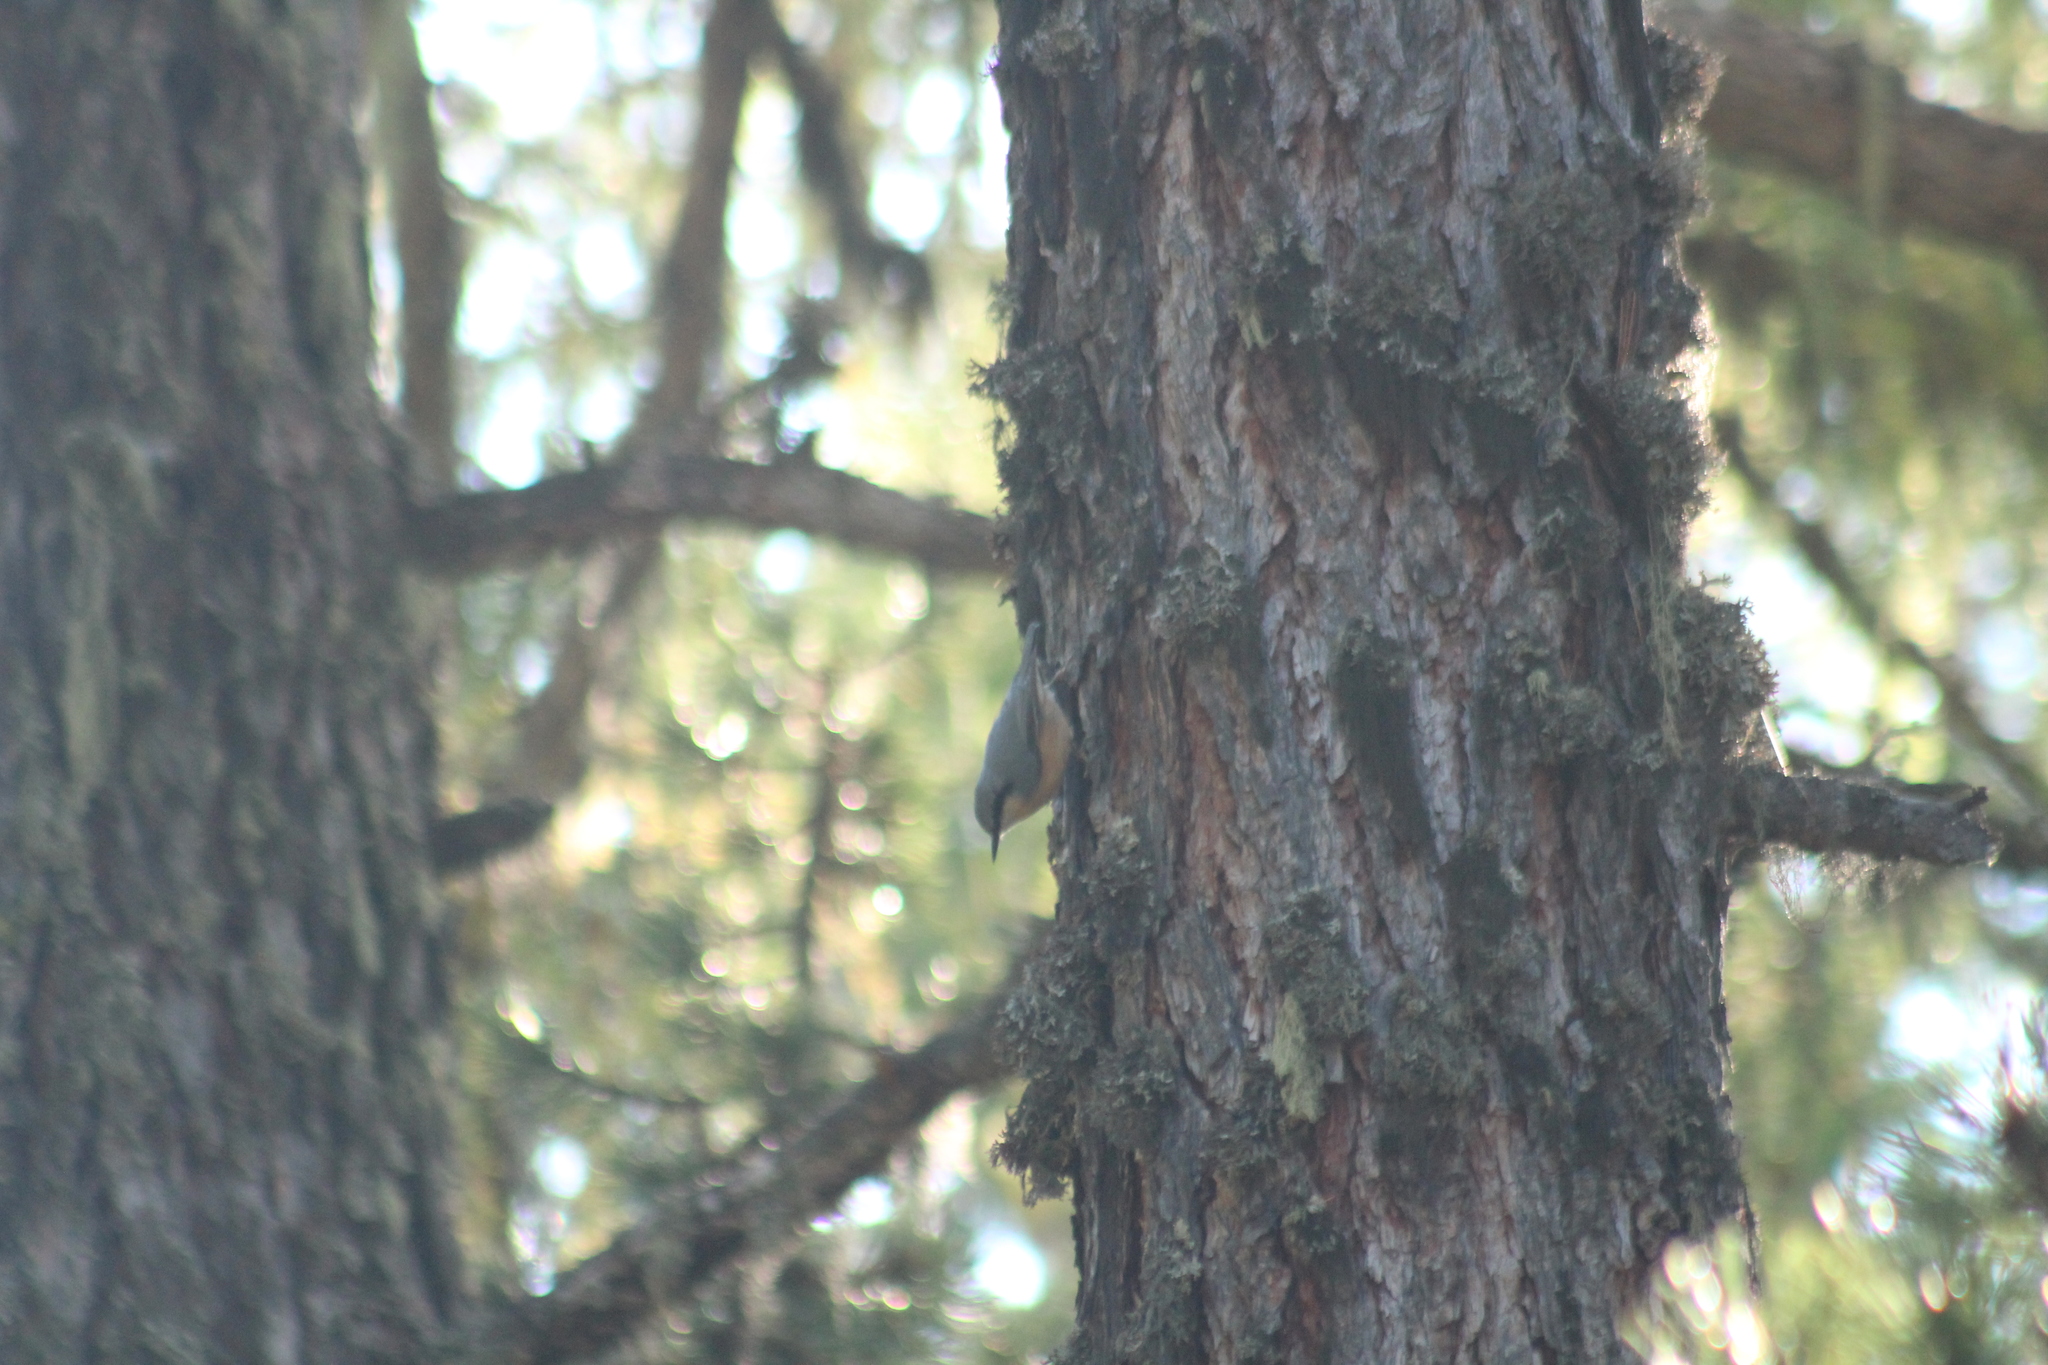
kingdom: Animalia
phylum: Chordata
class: Aves
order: Passeriformes
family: Sittidae
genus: Sitta
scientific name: Sitta europaea
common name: Eurasian nuthatch
